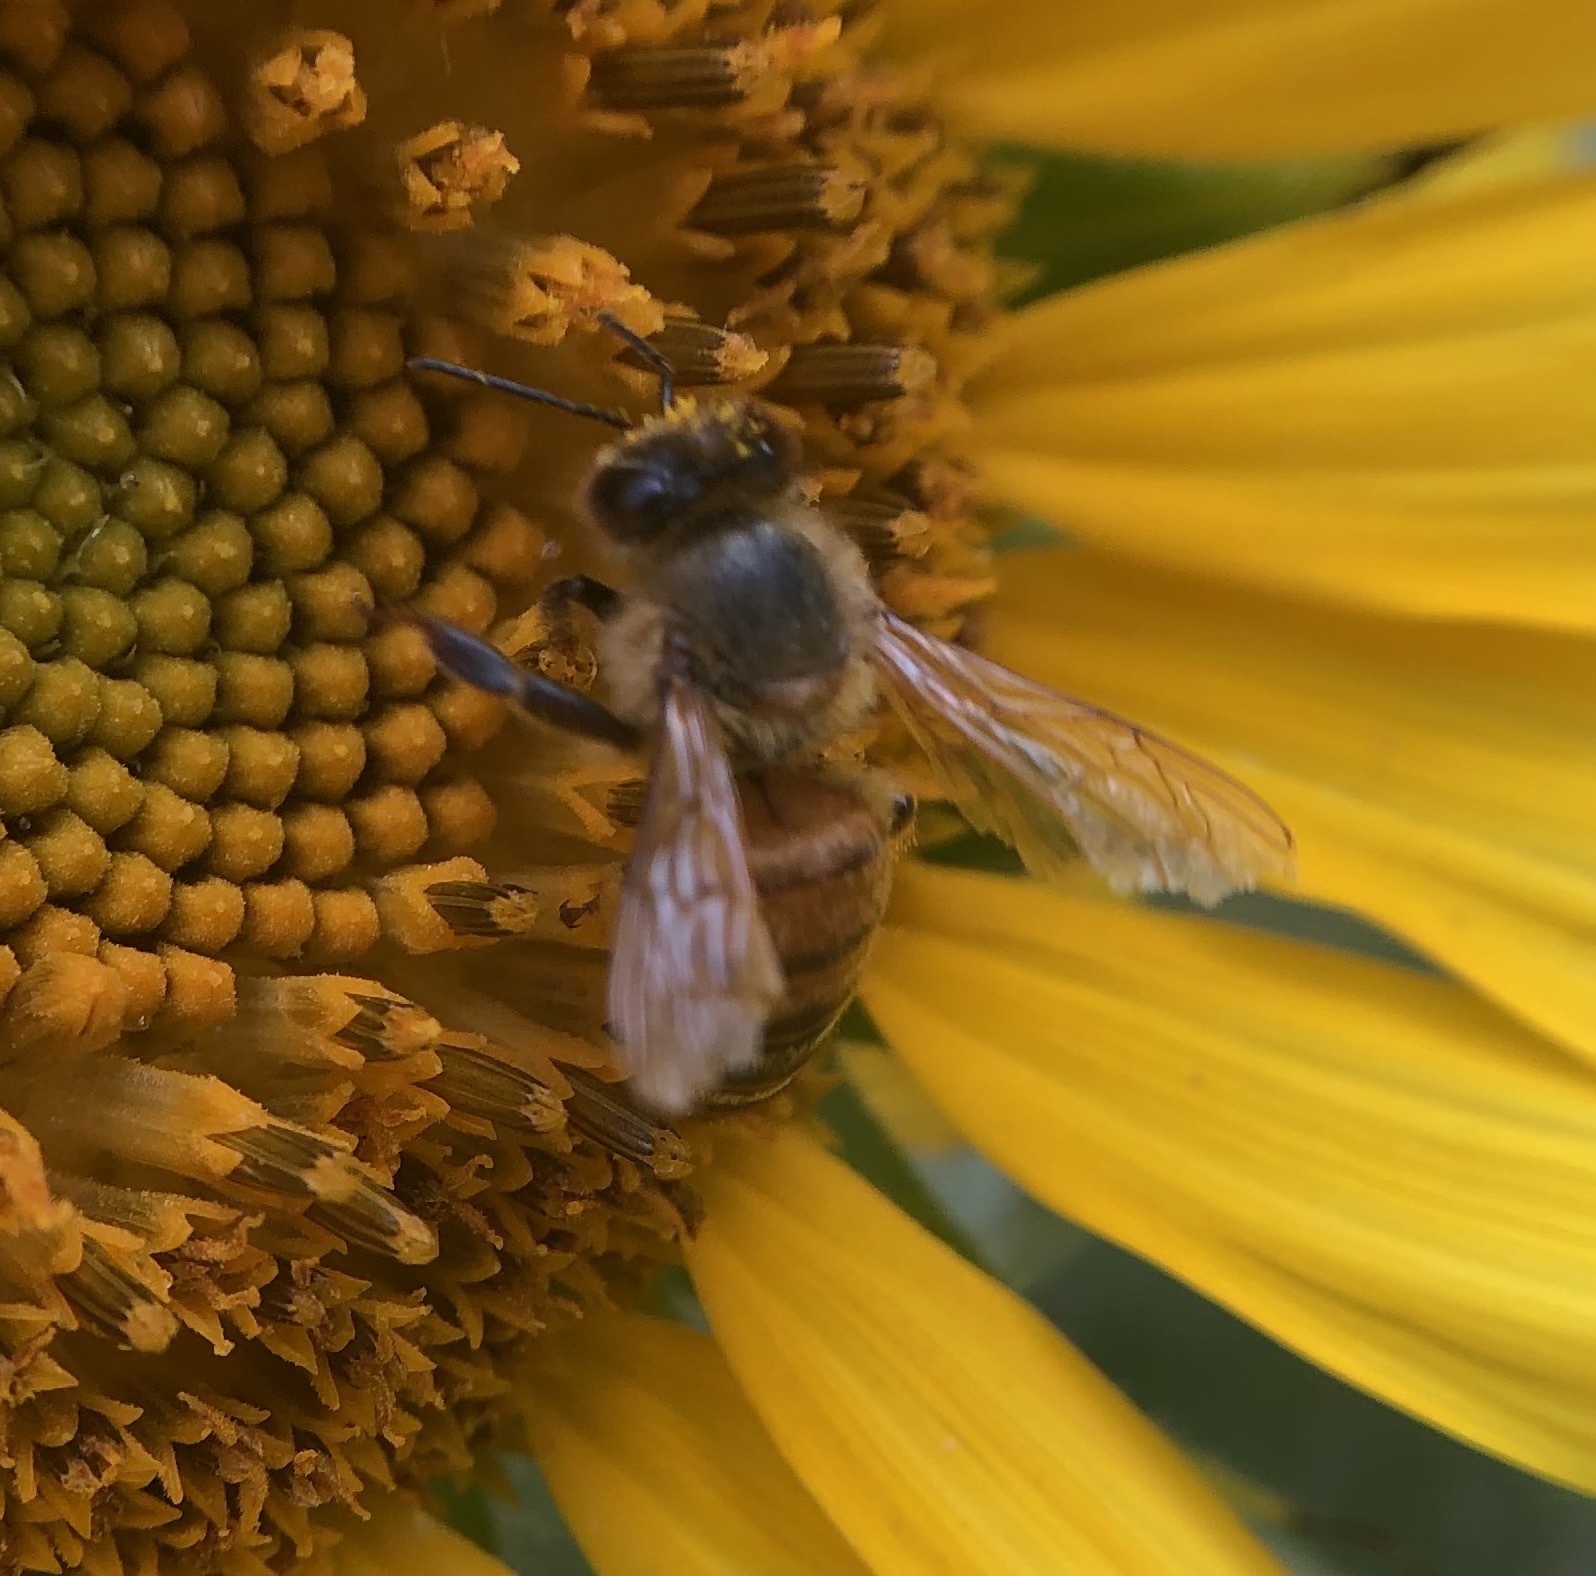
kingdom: Animalia
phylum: Arthropoda
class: Insecta
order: Hymenoptera
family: Apidae
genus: Apis
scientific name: Apis mellifera
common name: Honey bee
